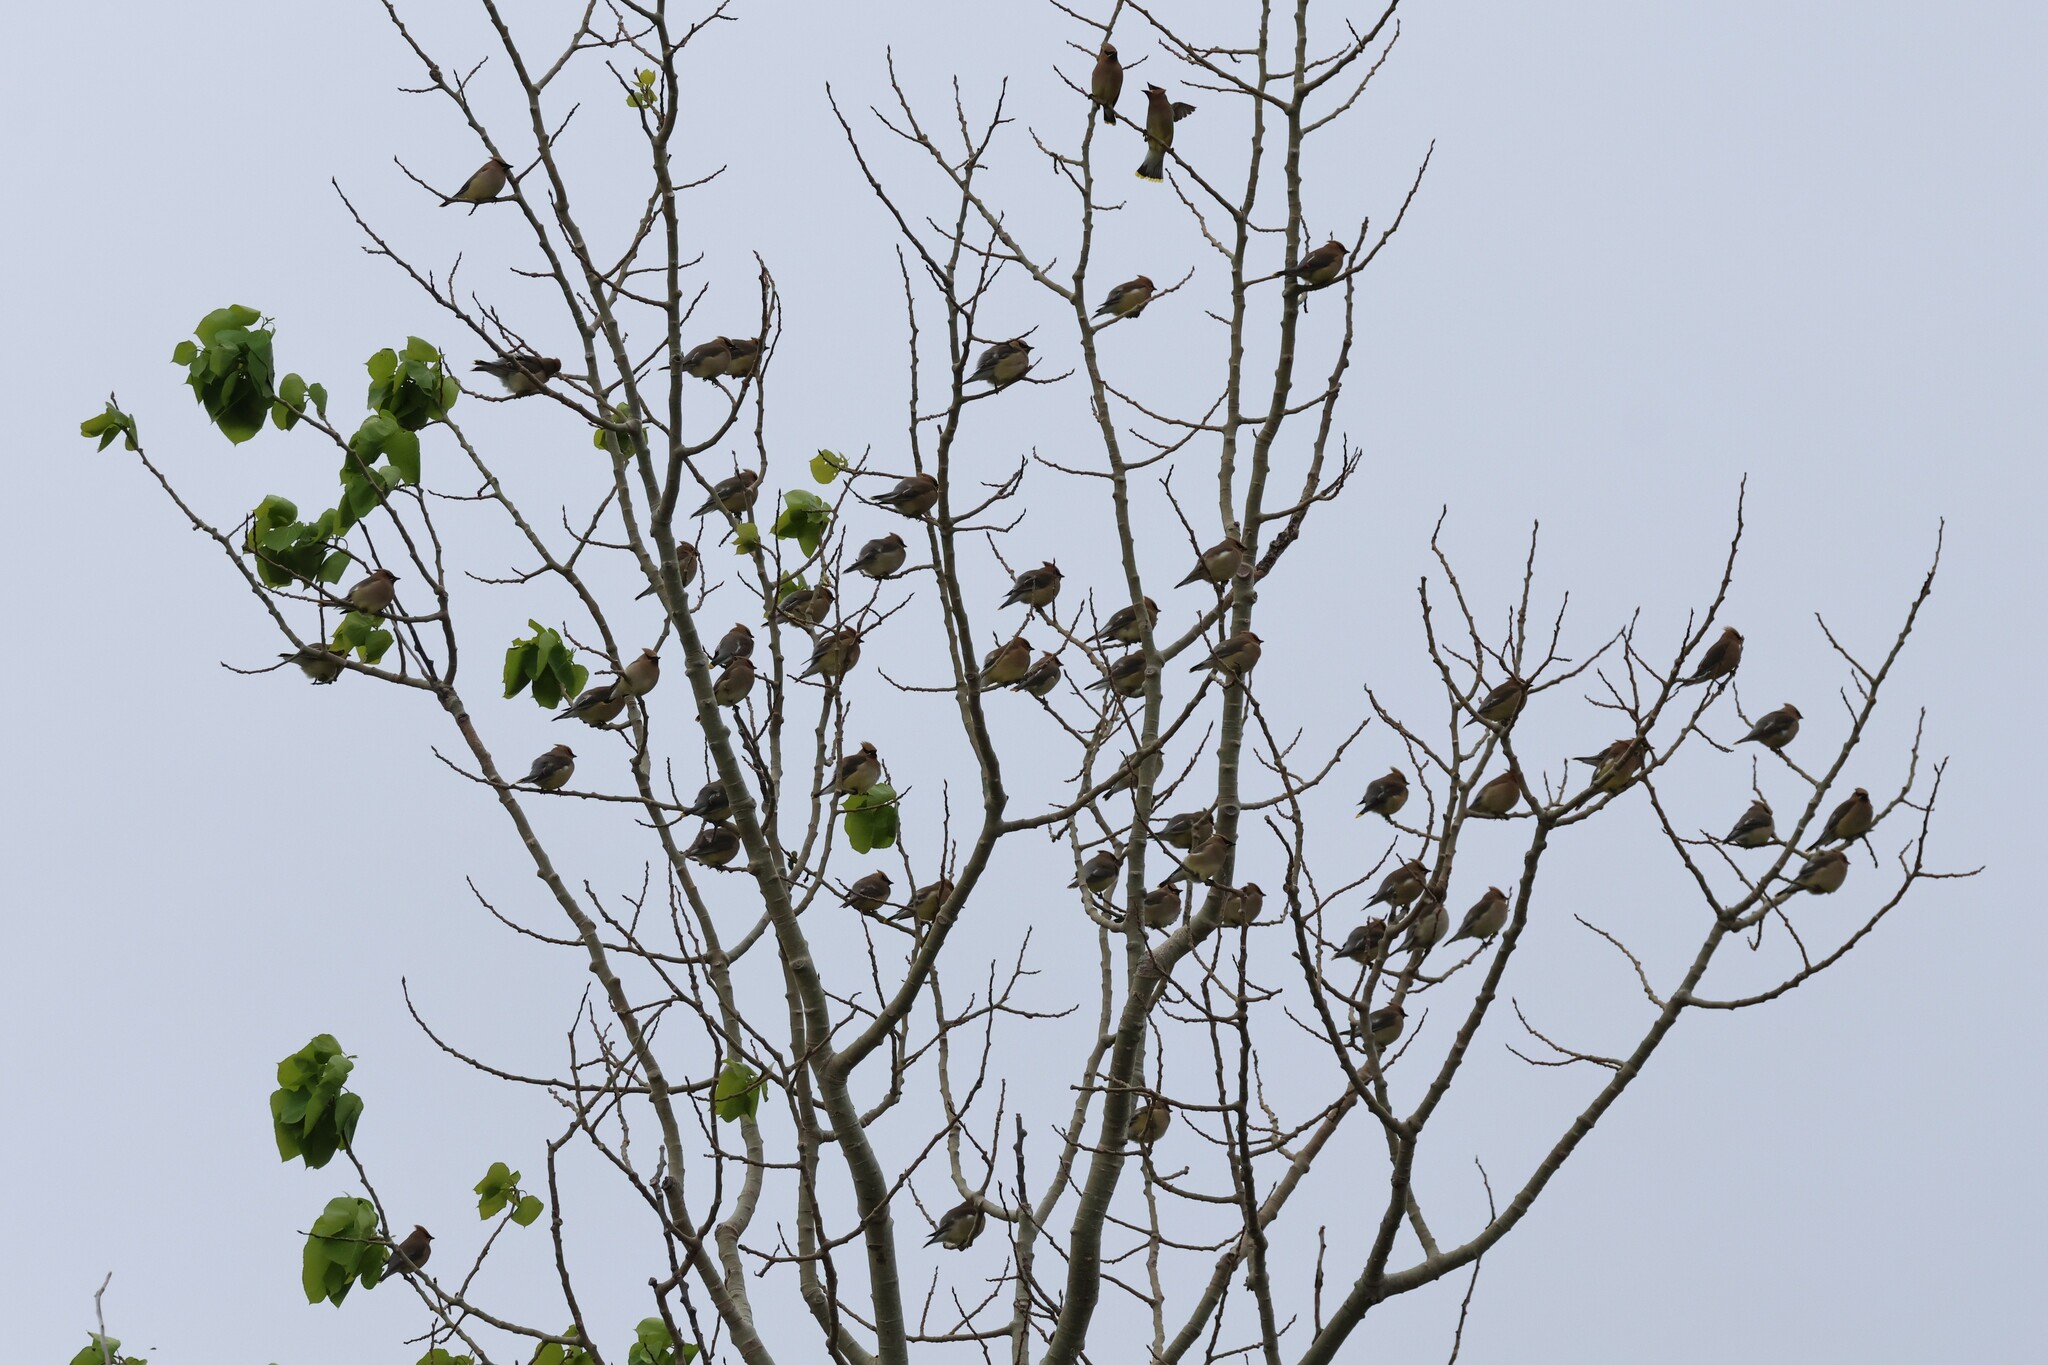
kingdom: Animalia
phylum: Chordata
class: Aves
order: Passeriformes
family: Bombycillidae
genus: Bombycilla
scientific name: Bombycilla cedrorum
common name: Cedar waxwing
